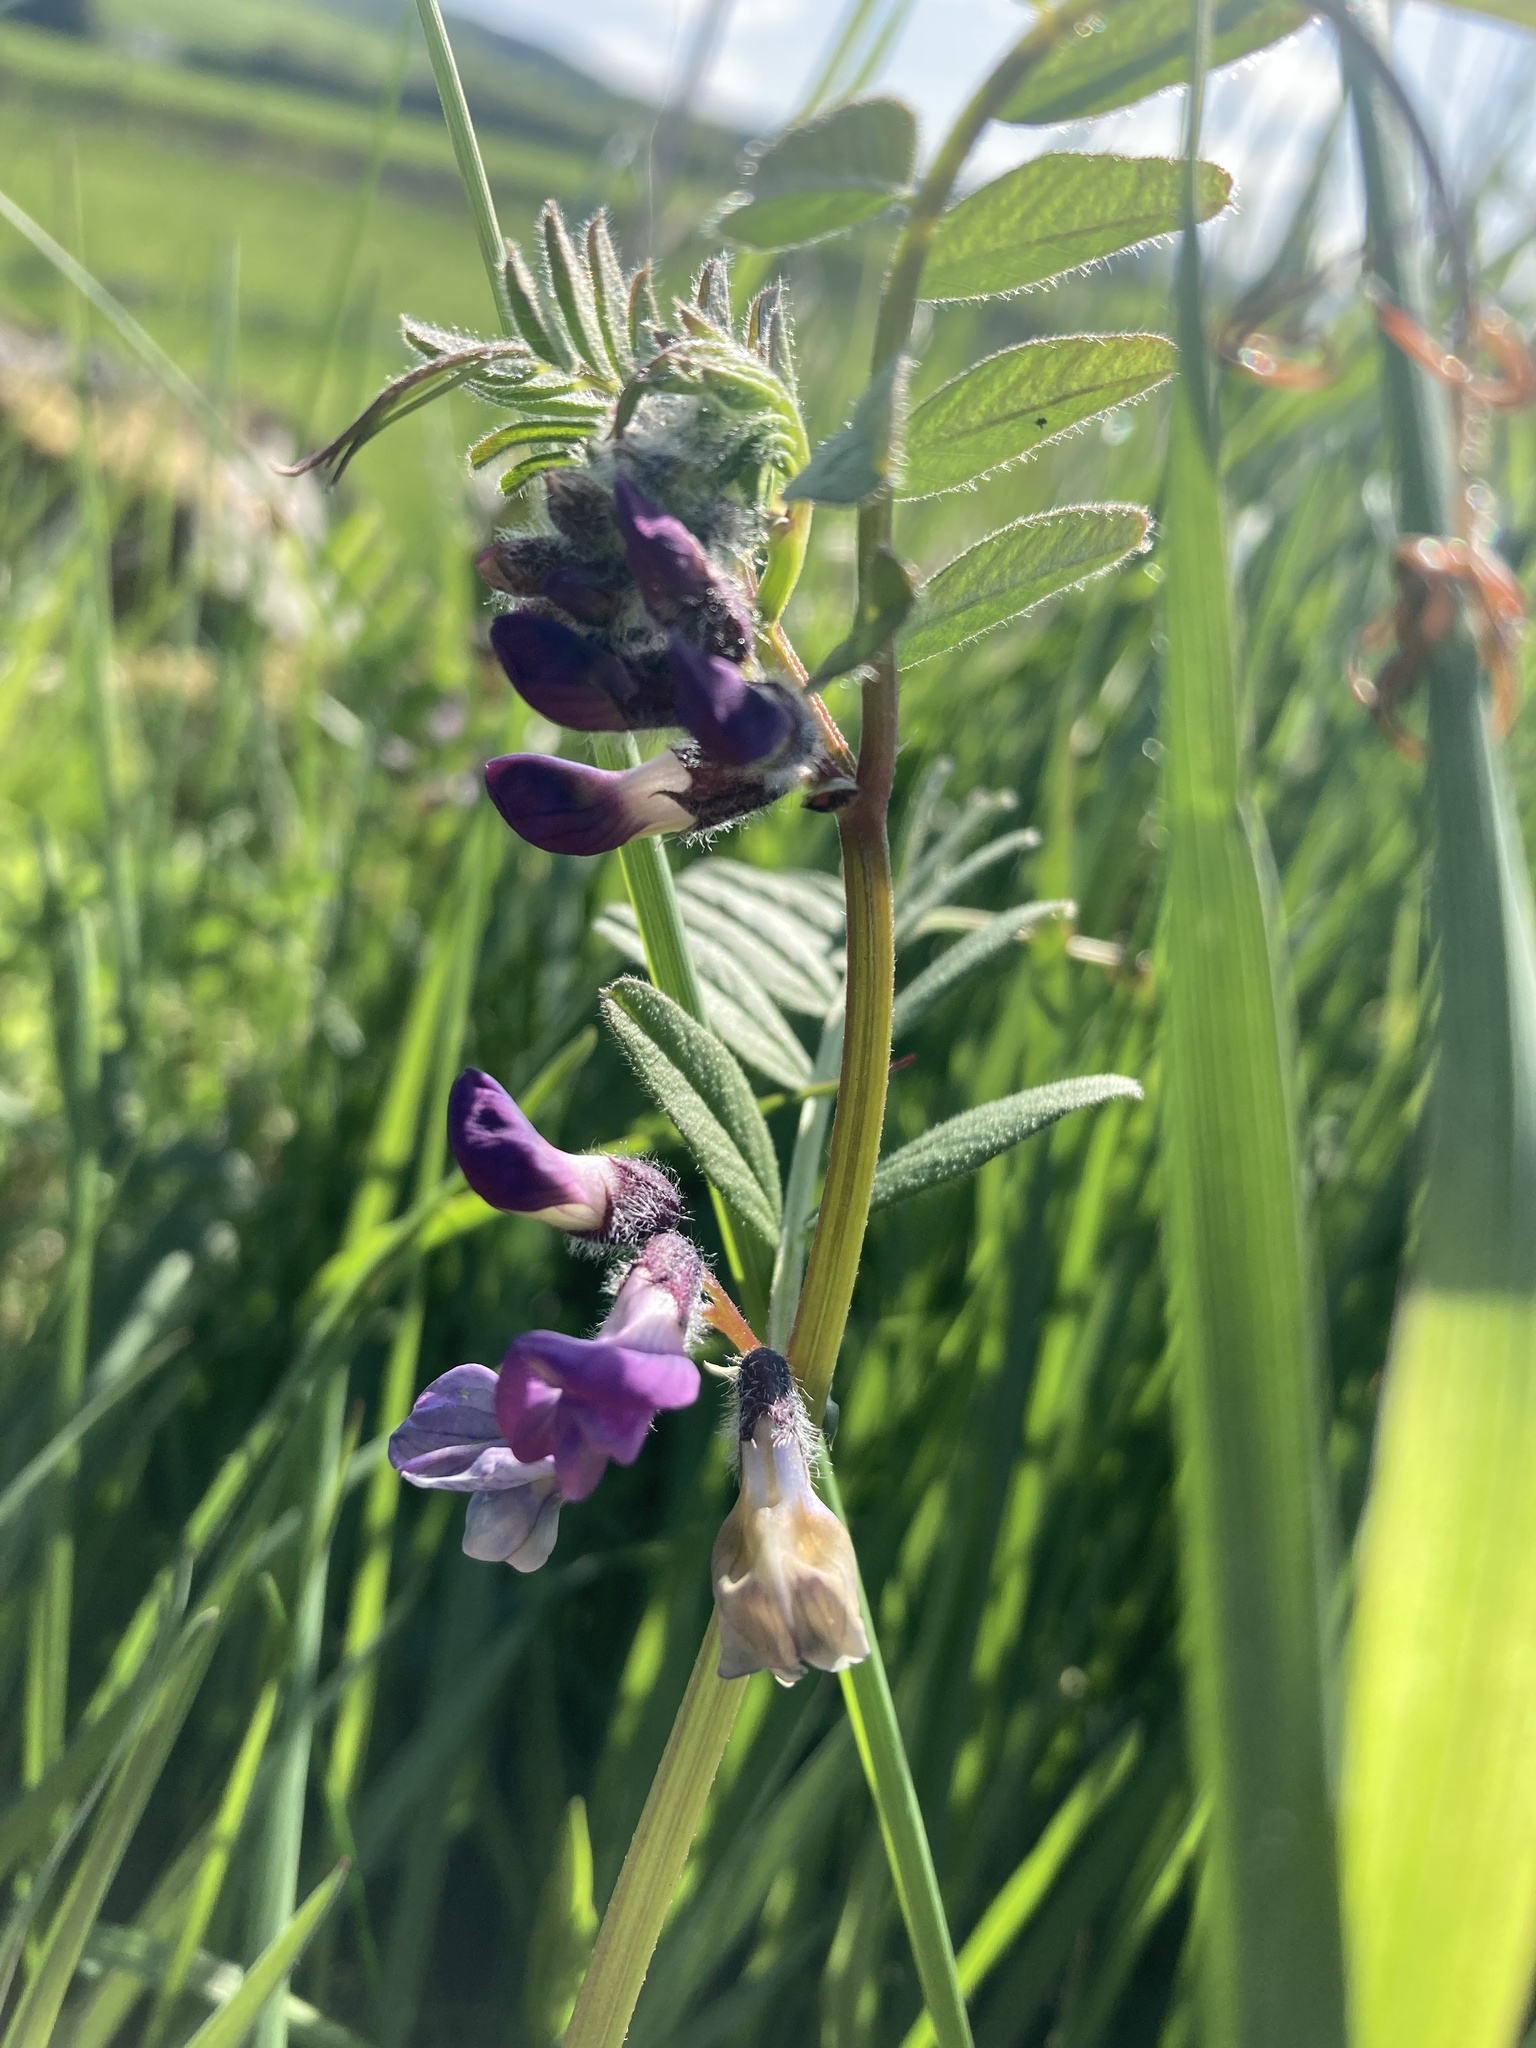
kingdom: Plantae
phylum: Tracheophyta
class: Magnoliopsida
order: Fabales
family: Fabaceae
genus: Vicia
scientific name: Vicia sepium
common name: Bush vetch
